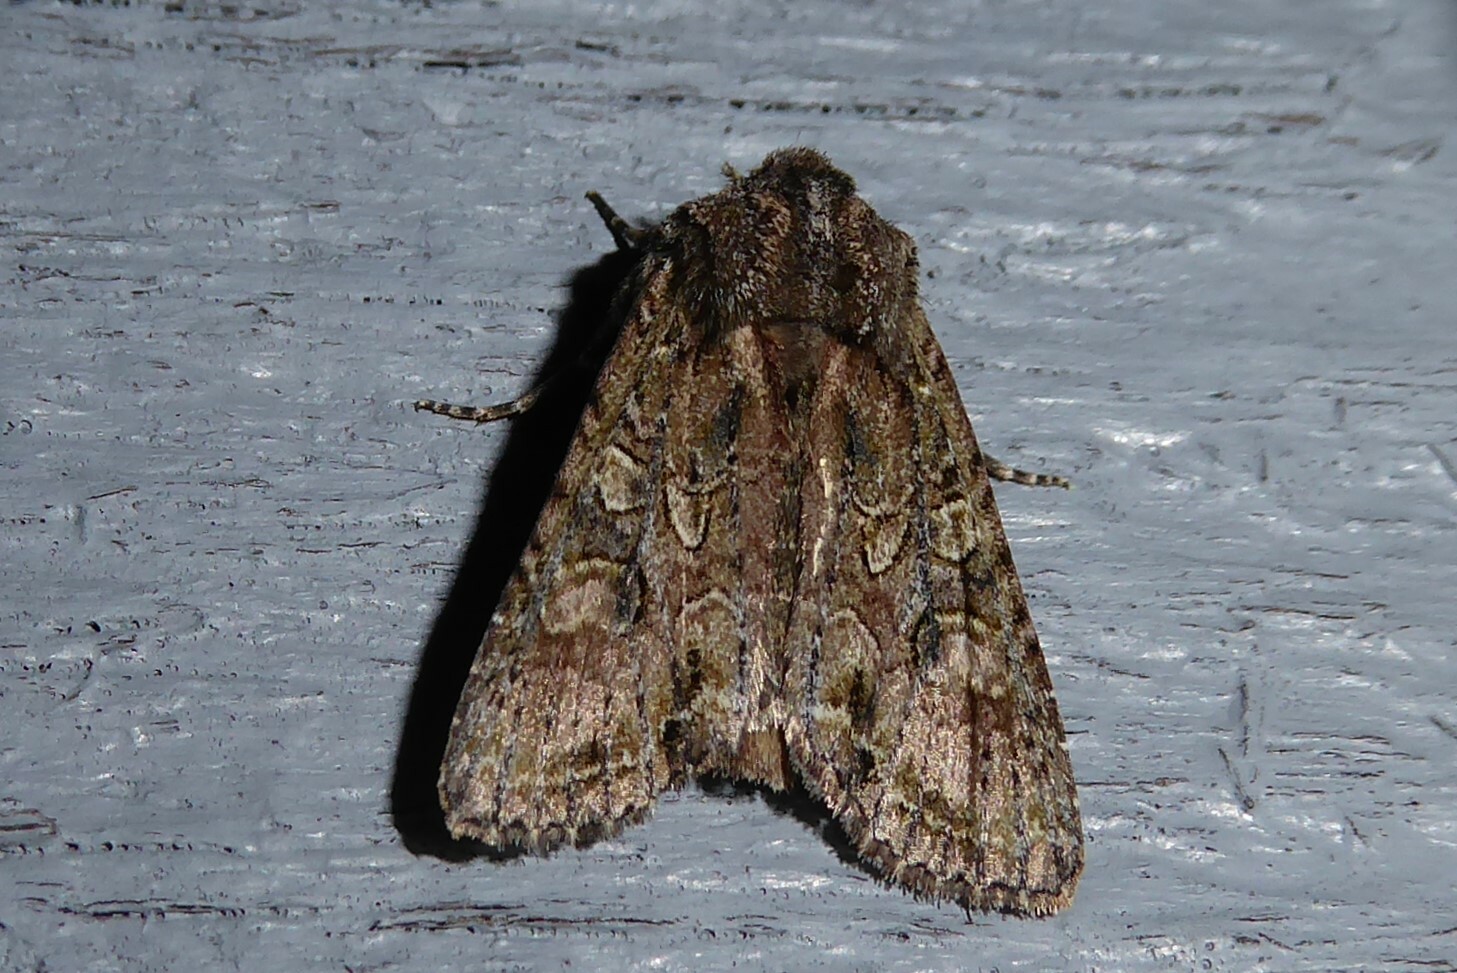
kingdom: Animalia
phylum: Arthropoda
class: Insecta
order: Lepidoptera
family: Noctuidae
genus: Ichneutica
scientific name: Ichneutica mutans
